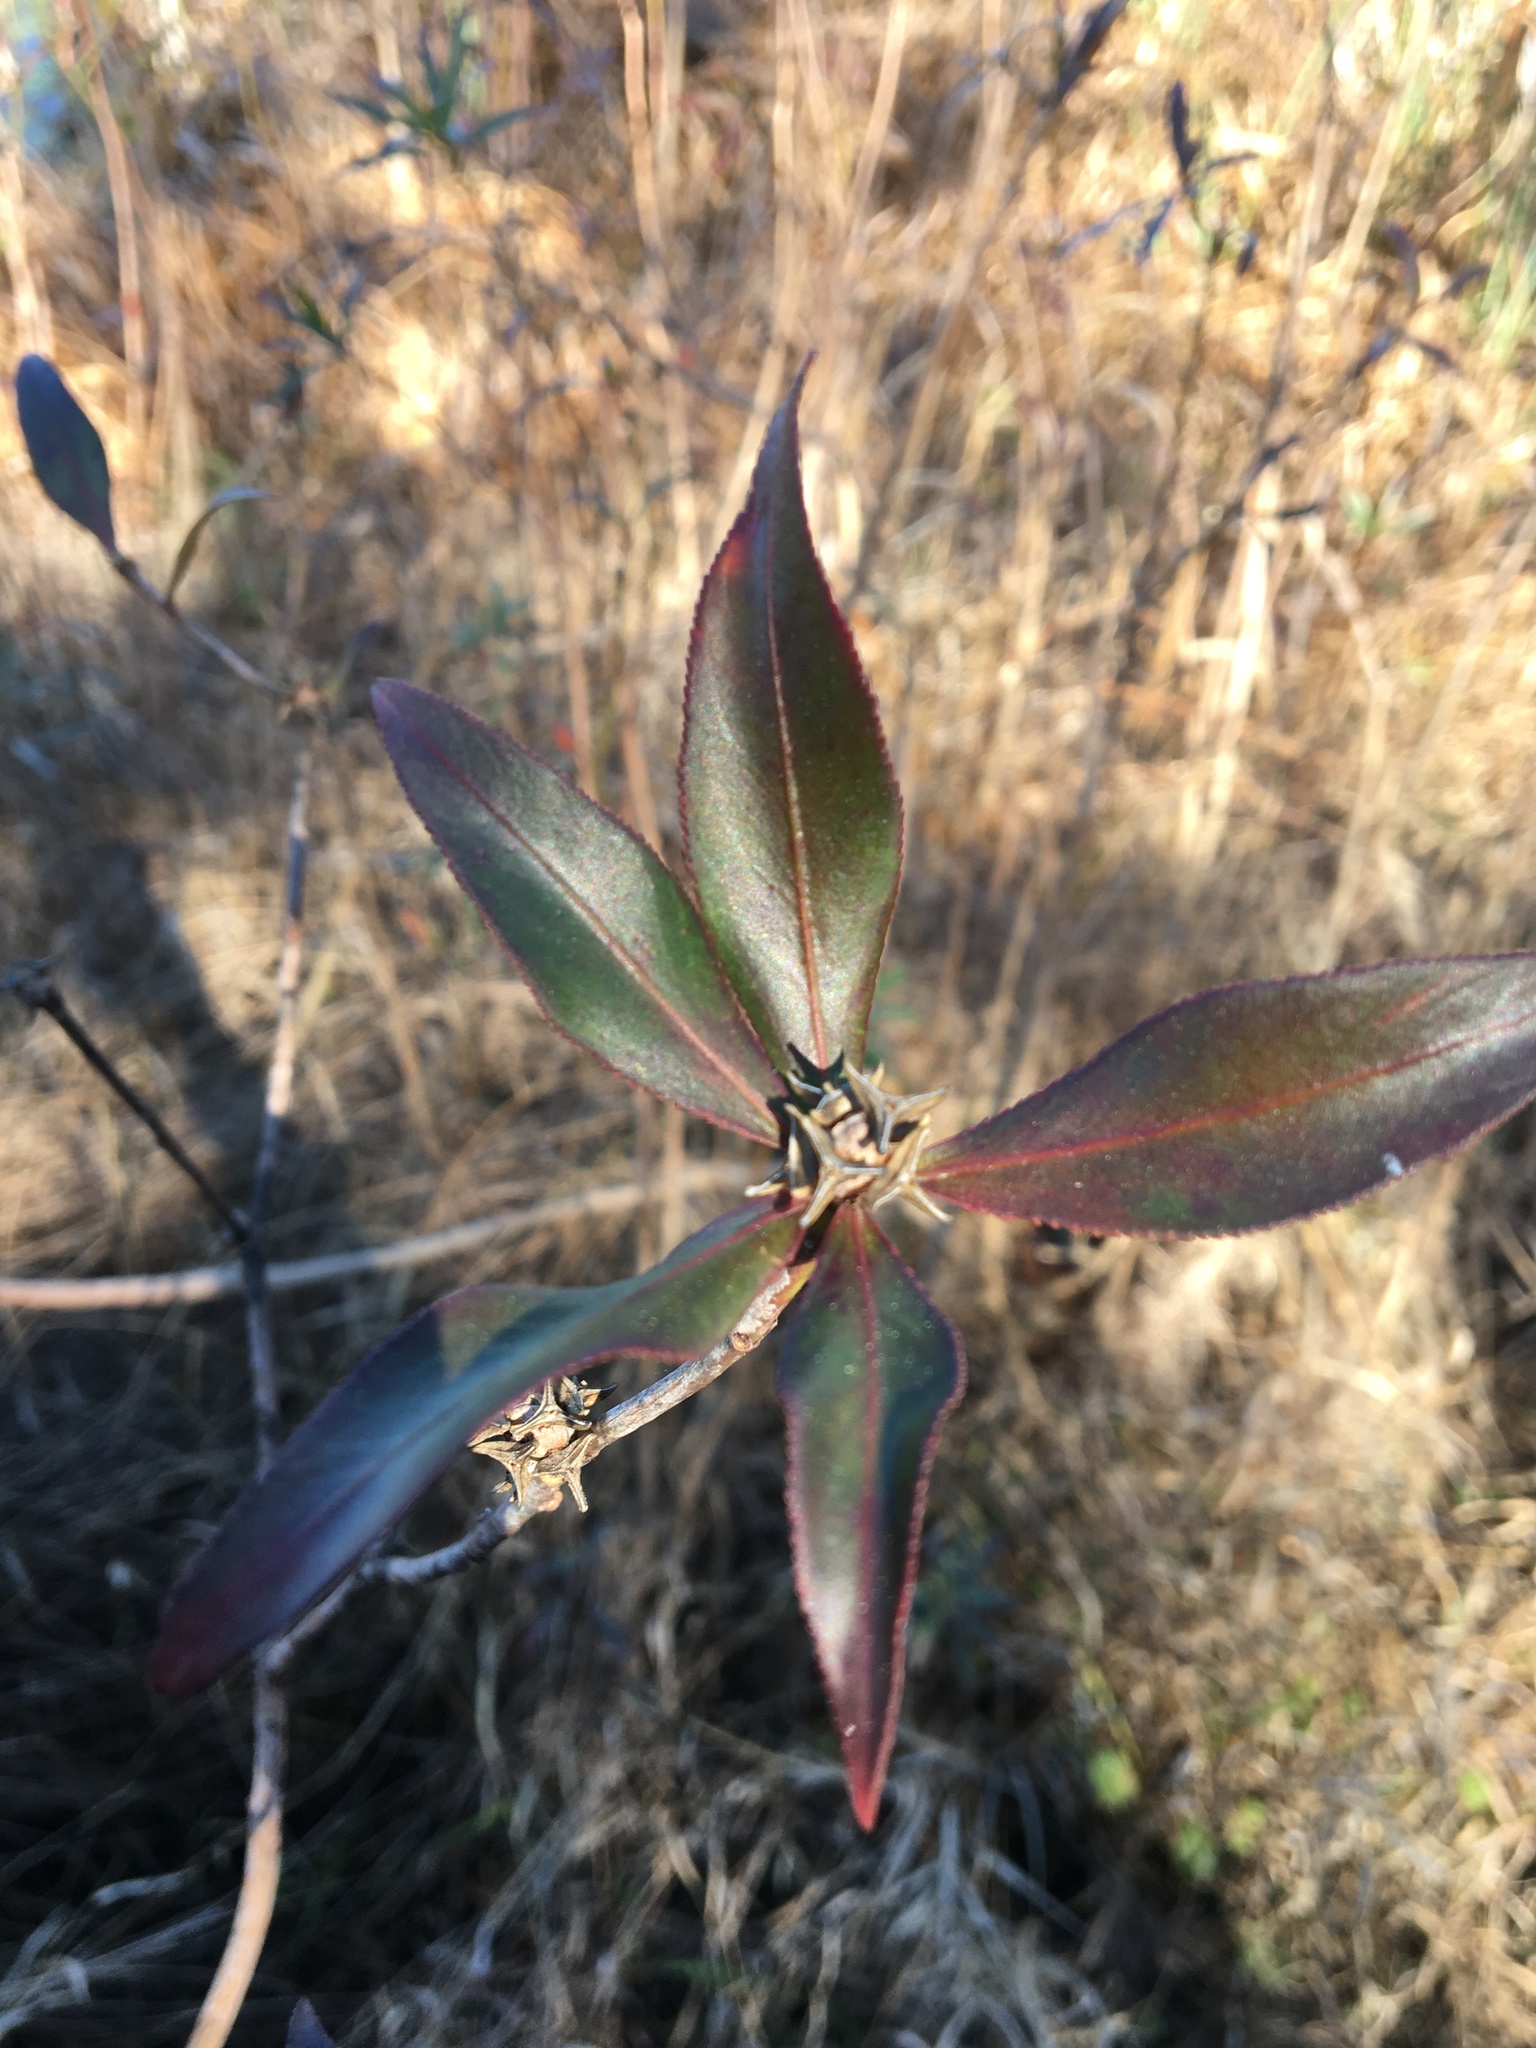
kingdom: Plantae
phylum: Tracheophyta
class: Magnoliopsida
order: Malpighiales
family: Euphorbiaceae
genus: Stillingia
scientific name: Stillingia aquatica
